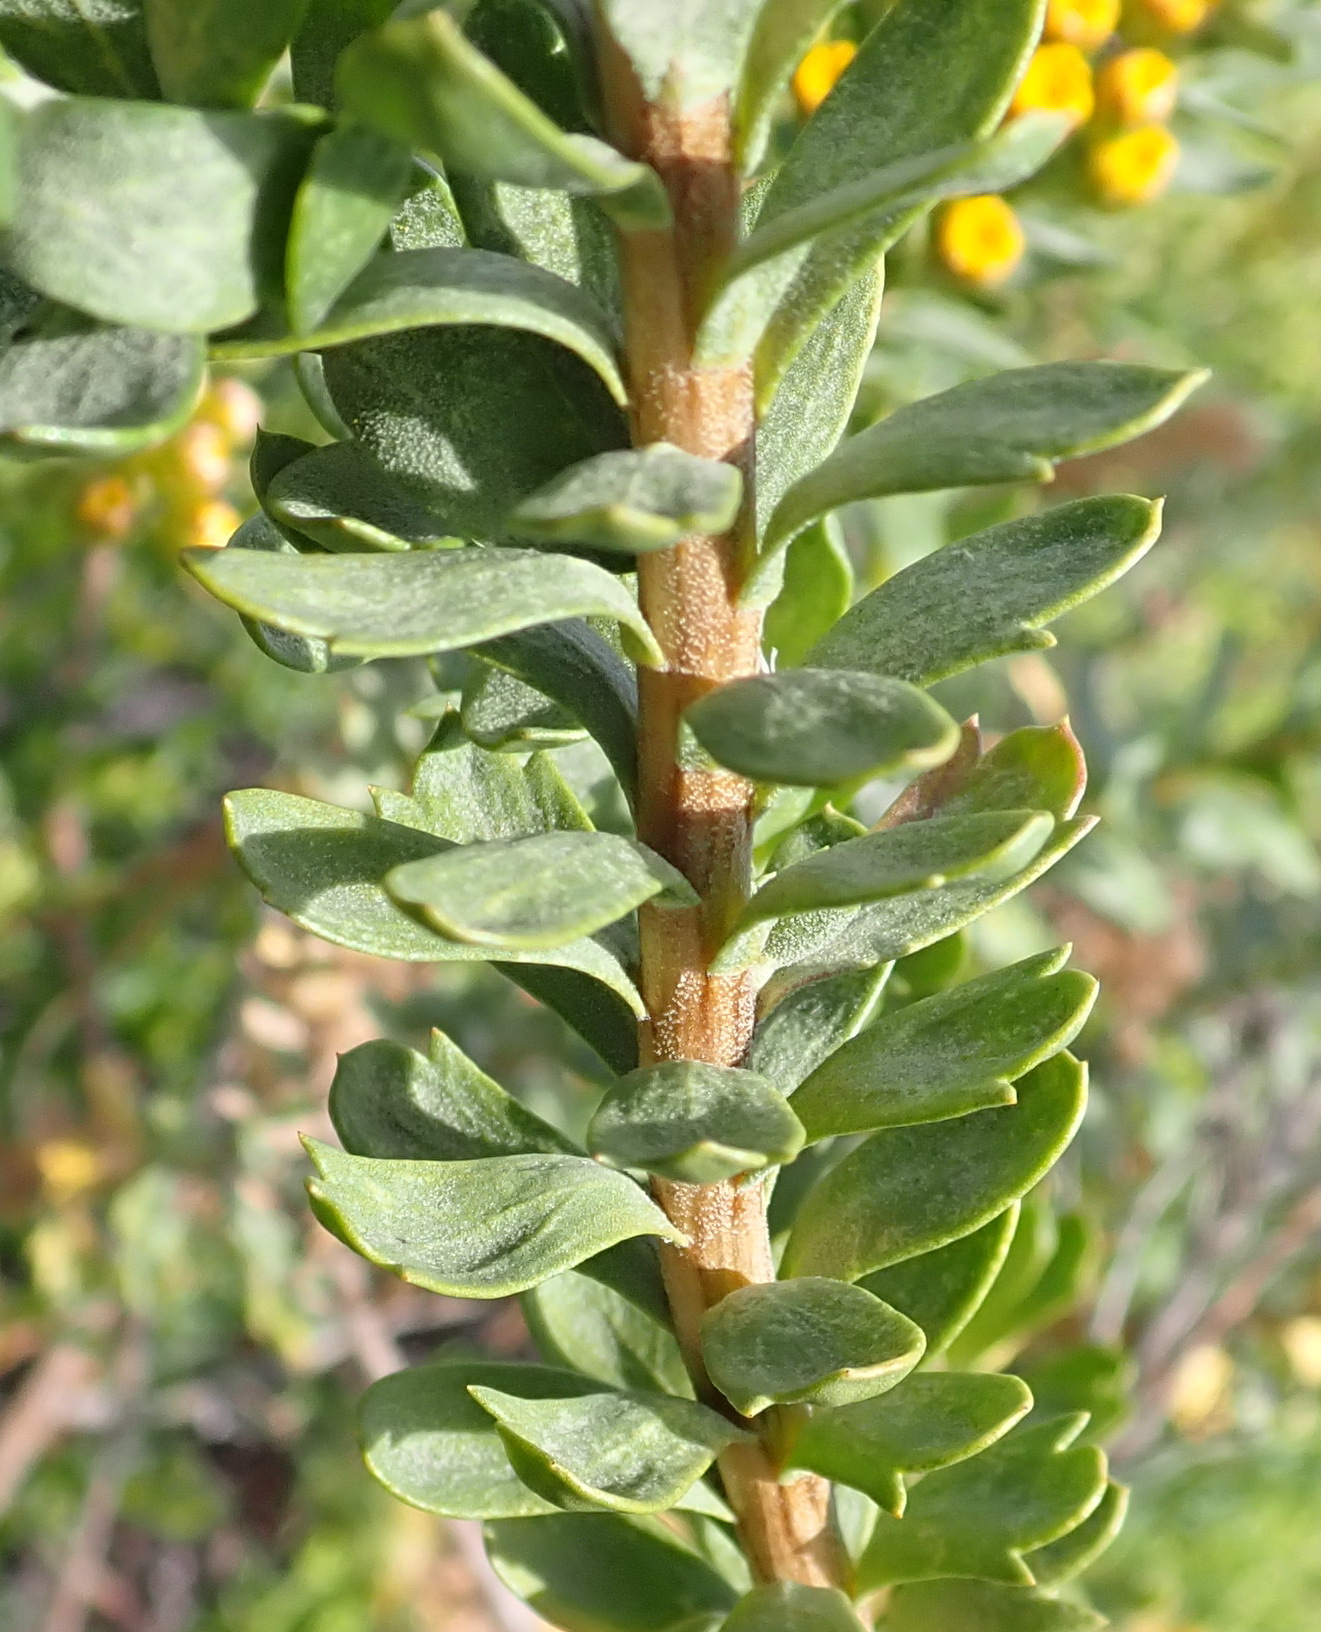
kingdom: Plantae
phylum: Tracheophyta
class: Magnoliopsida
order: Asterales
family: Asteraceae
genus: Athanasia
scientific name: Athanasia trifurcata
